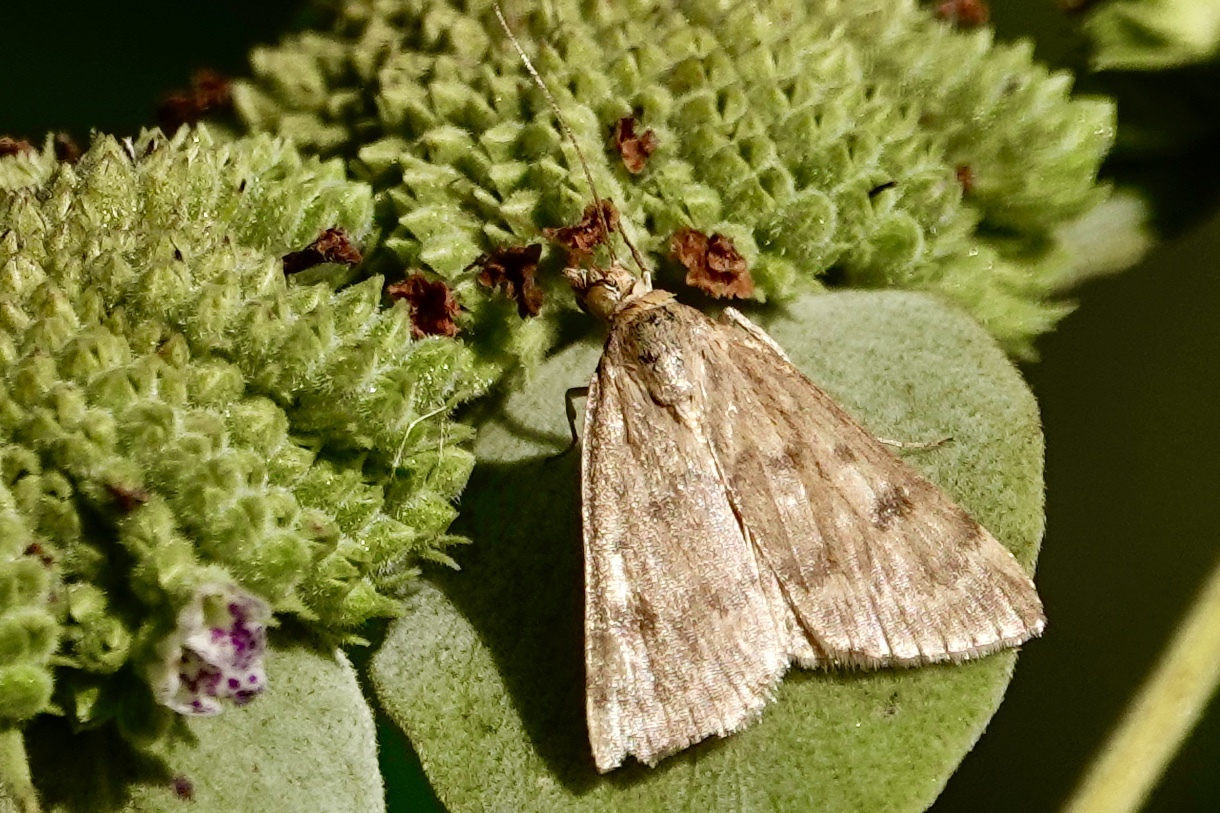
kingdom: Animalia
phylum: Arthropoda
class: Insecta
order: Lepidoptera
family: Crambidae
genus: Achyra
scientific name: Achyra rantalis
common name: Garden webworm
